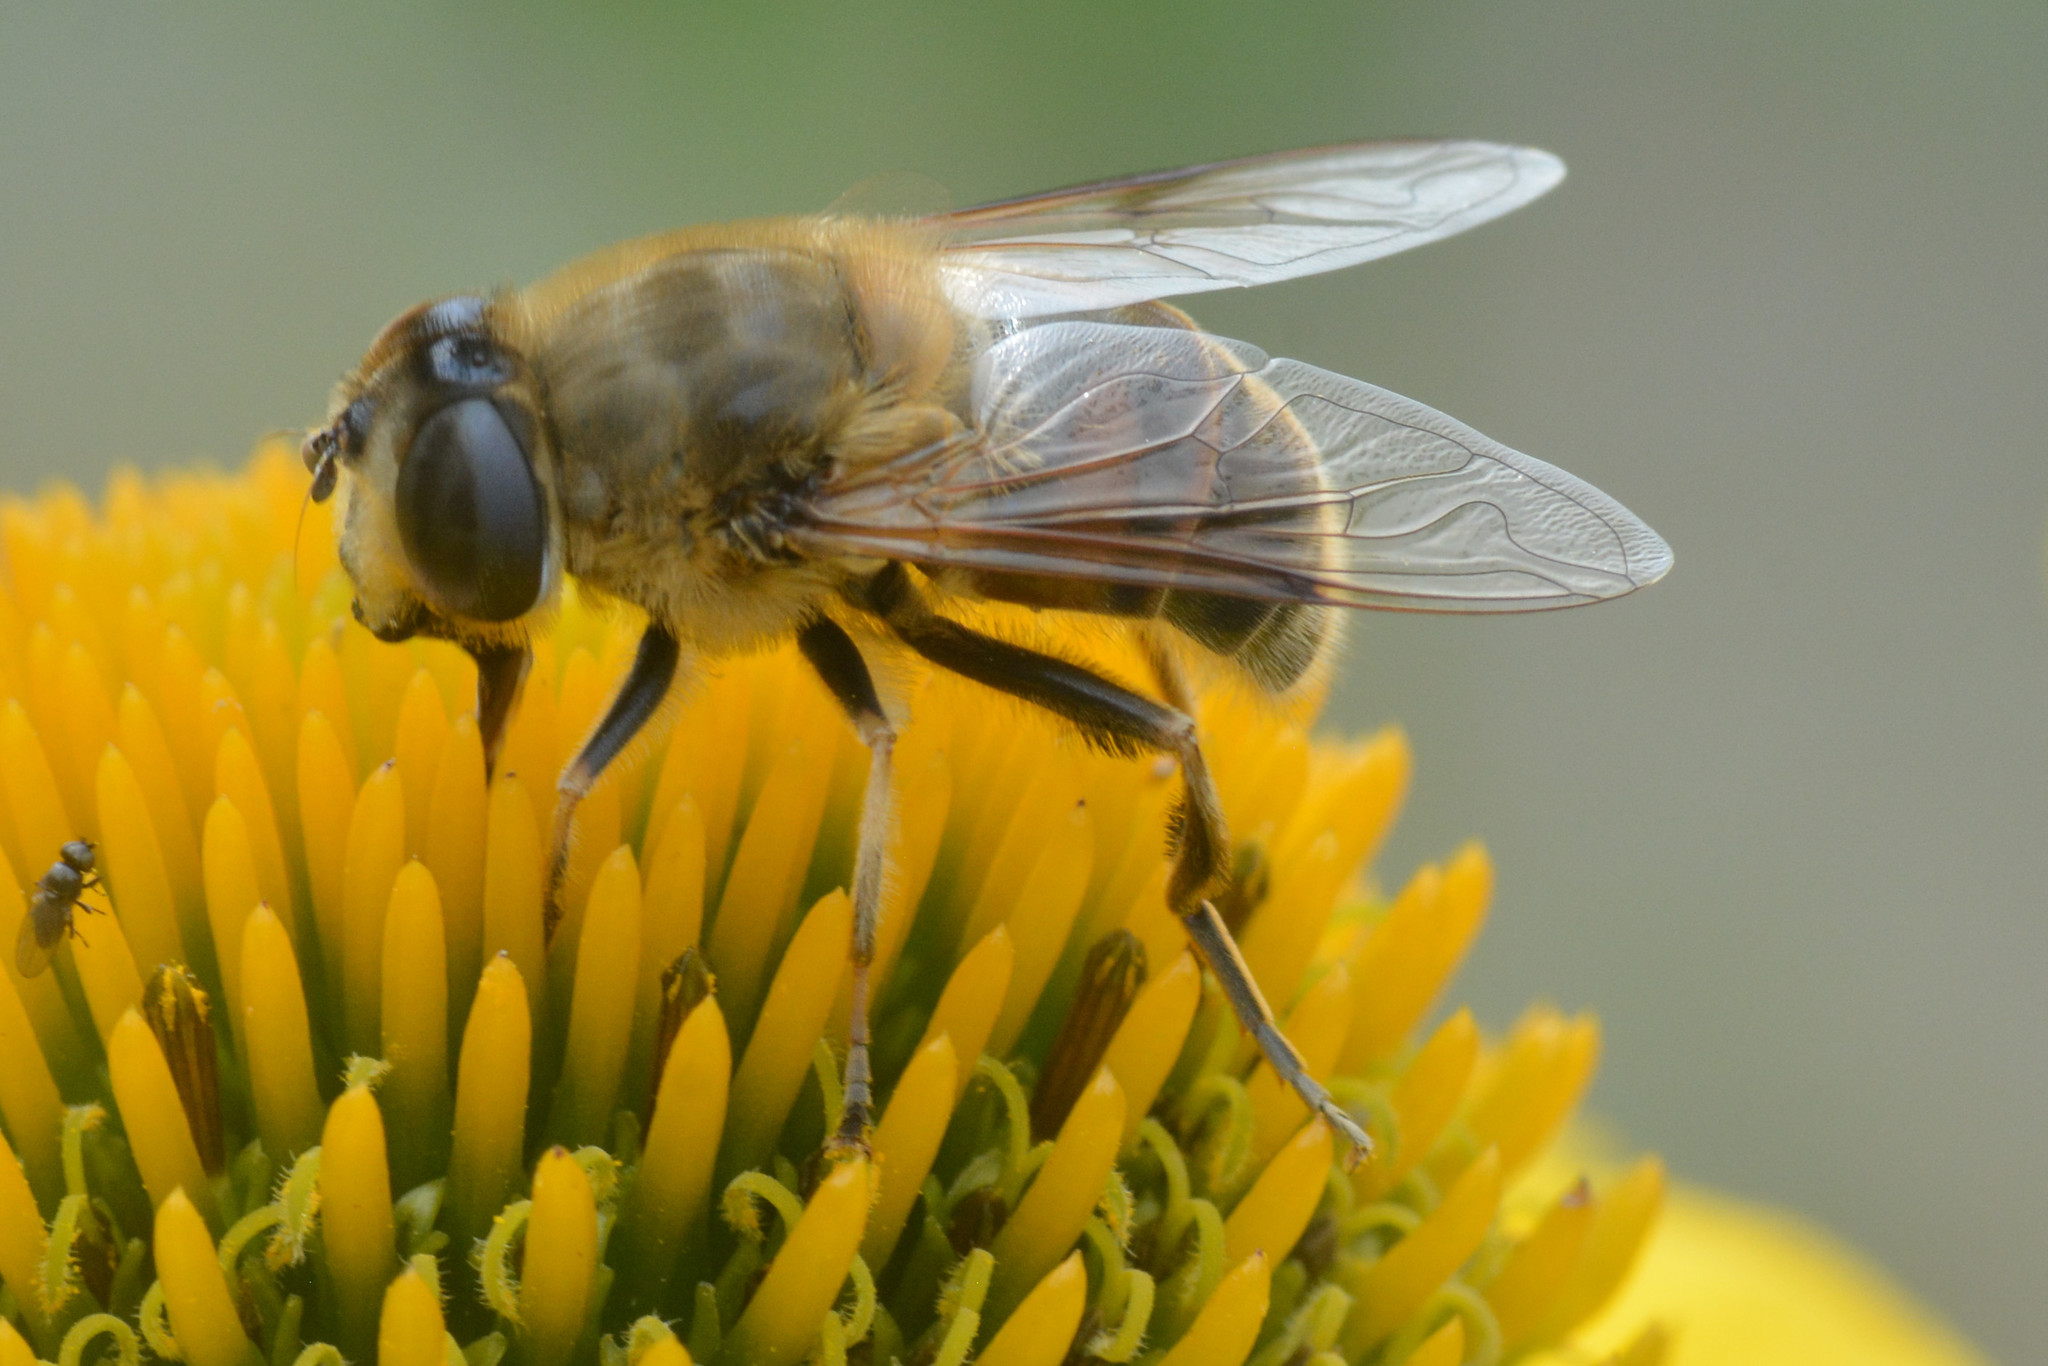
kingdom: Animalia
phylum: Arthropoda
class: Insecta
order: Diptera
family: Syrphidae
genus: Eristalis
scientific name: Eristalis tenax
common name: Drone fly
